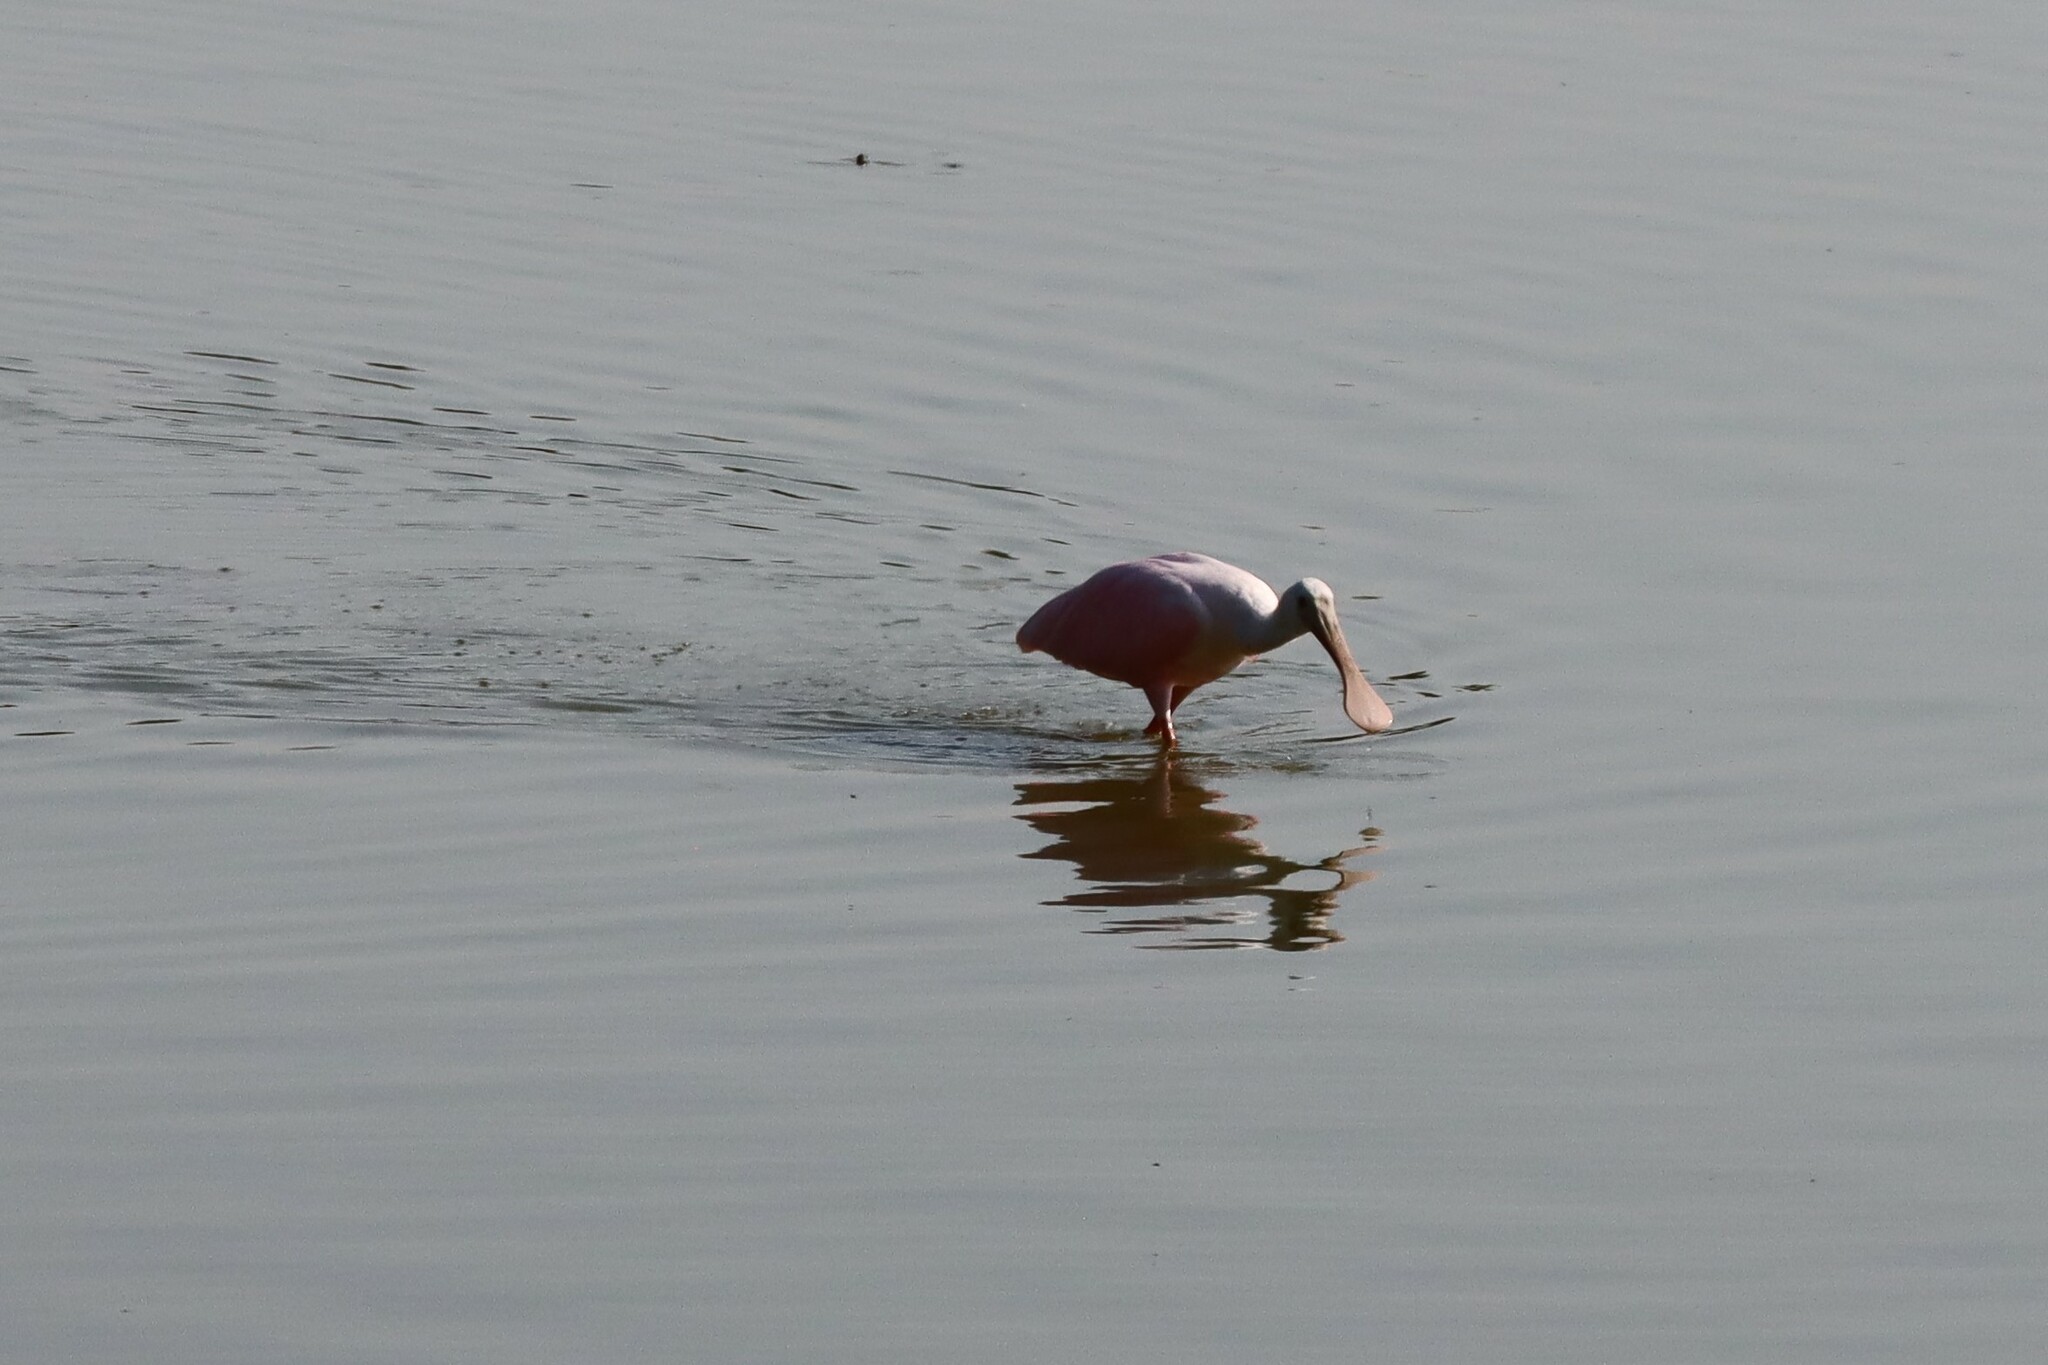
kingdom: Animalia
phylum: Chordata
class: Aves
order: Pelecaniformes
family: Threskiornithidae
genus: Platalea
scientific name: Platalea ajaja
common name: Roseate spoonbill
